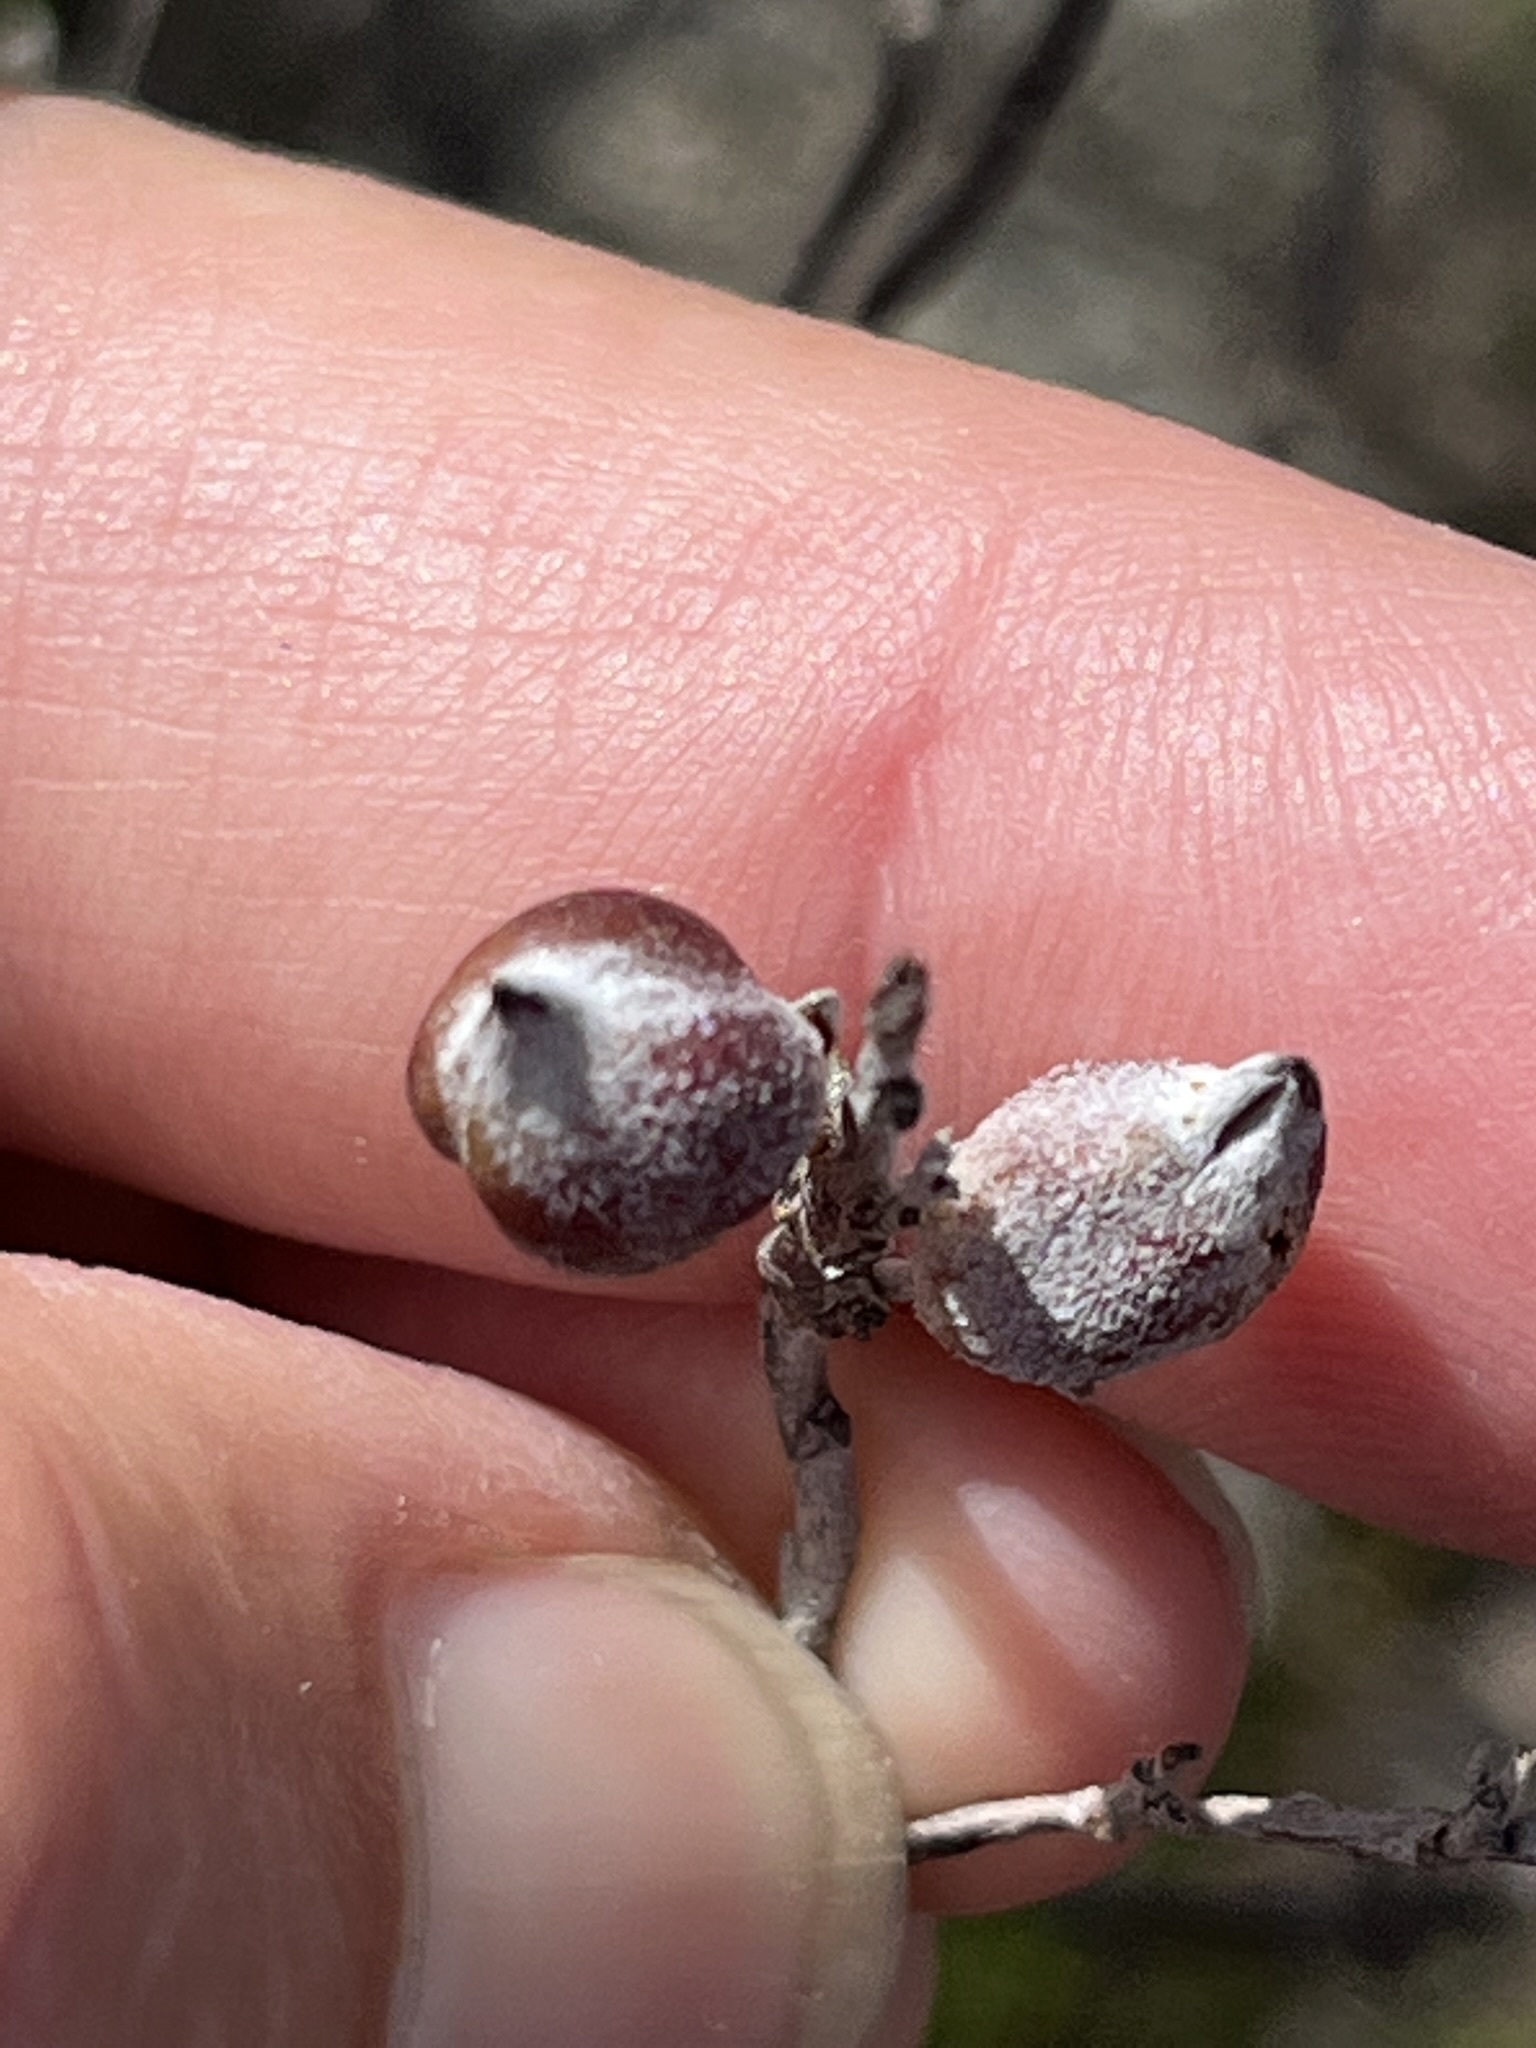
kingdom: Plantae
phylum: Tracheophyta
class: Magnoliopsida
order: Fabales
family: Fabaceae
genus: Indigofera
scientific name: Indigofera brachystachya
